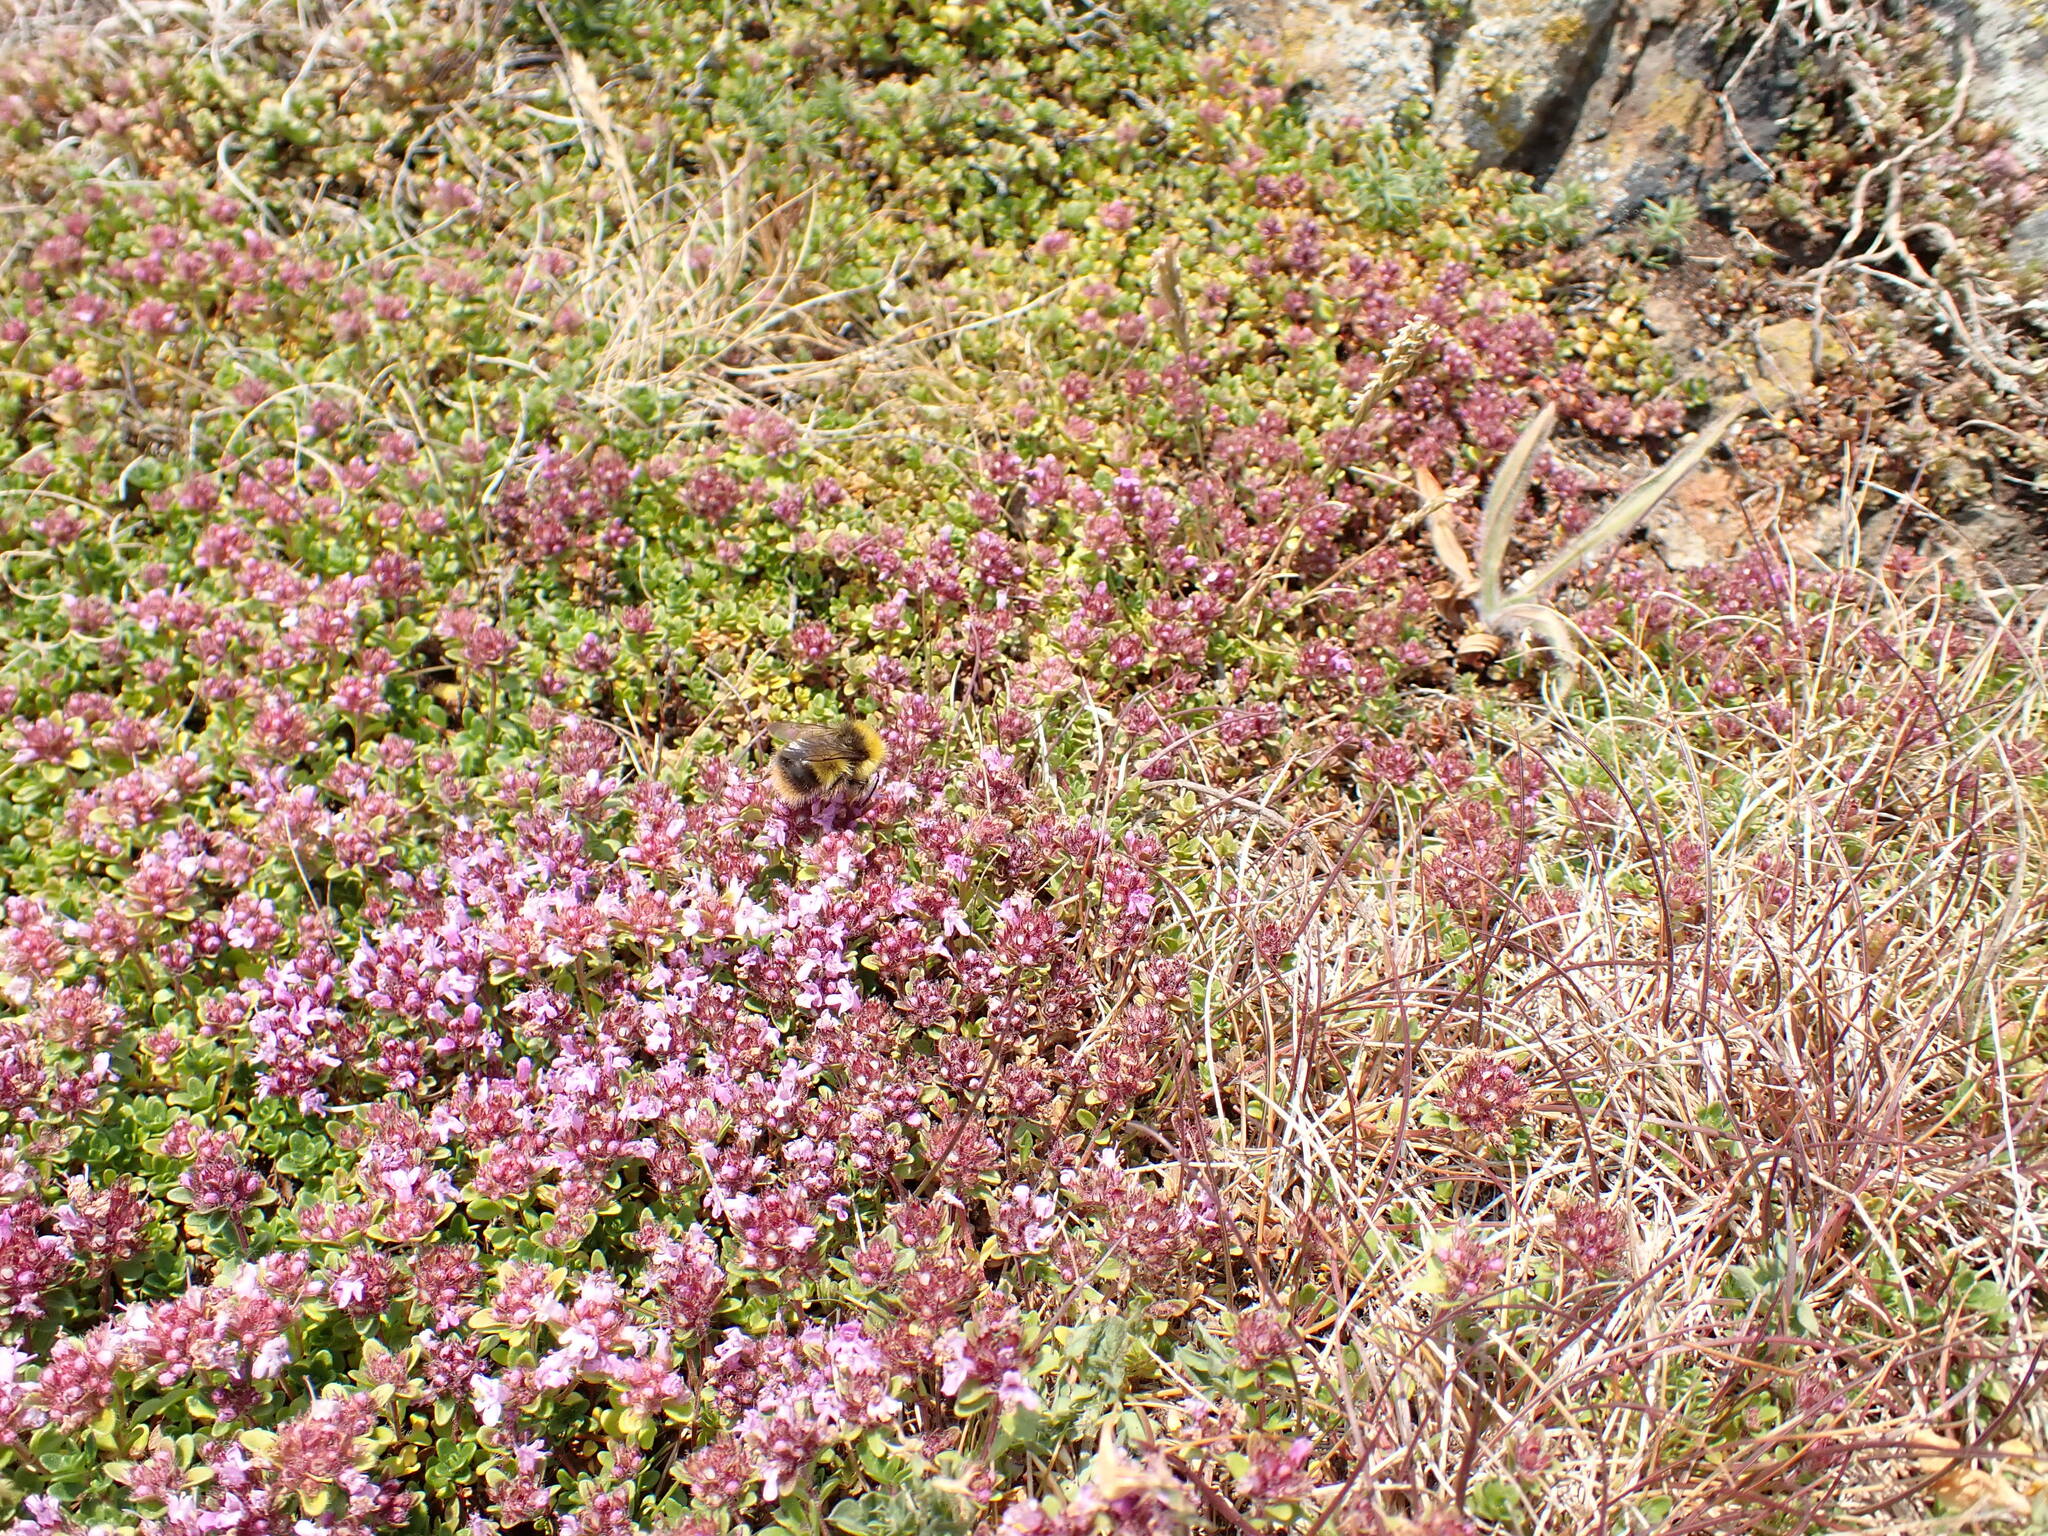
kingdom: Plantae
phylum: Tracheophyta
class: Magnoliopsida
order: Lamiales
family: Lamiaceae
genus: Thymus
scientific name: Thymus praecox
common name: Wild thyme
